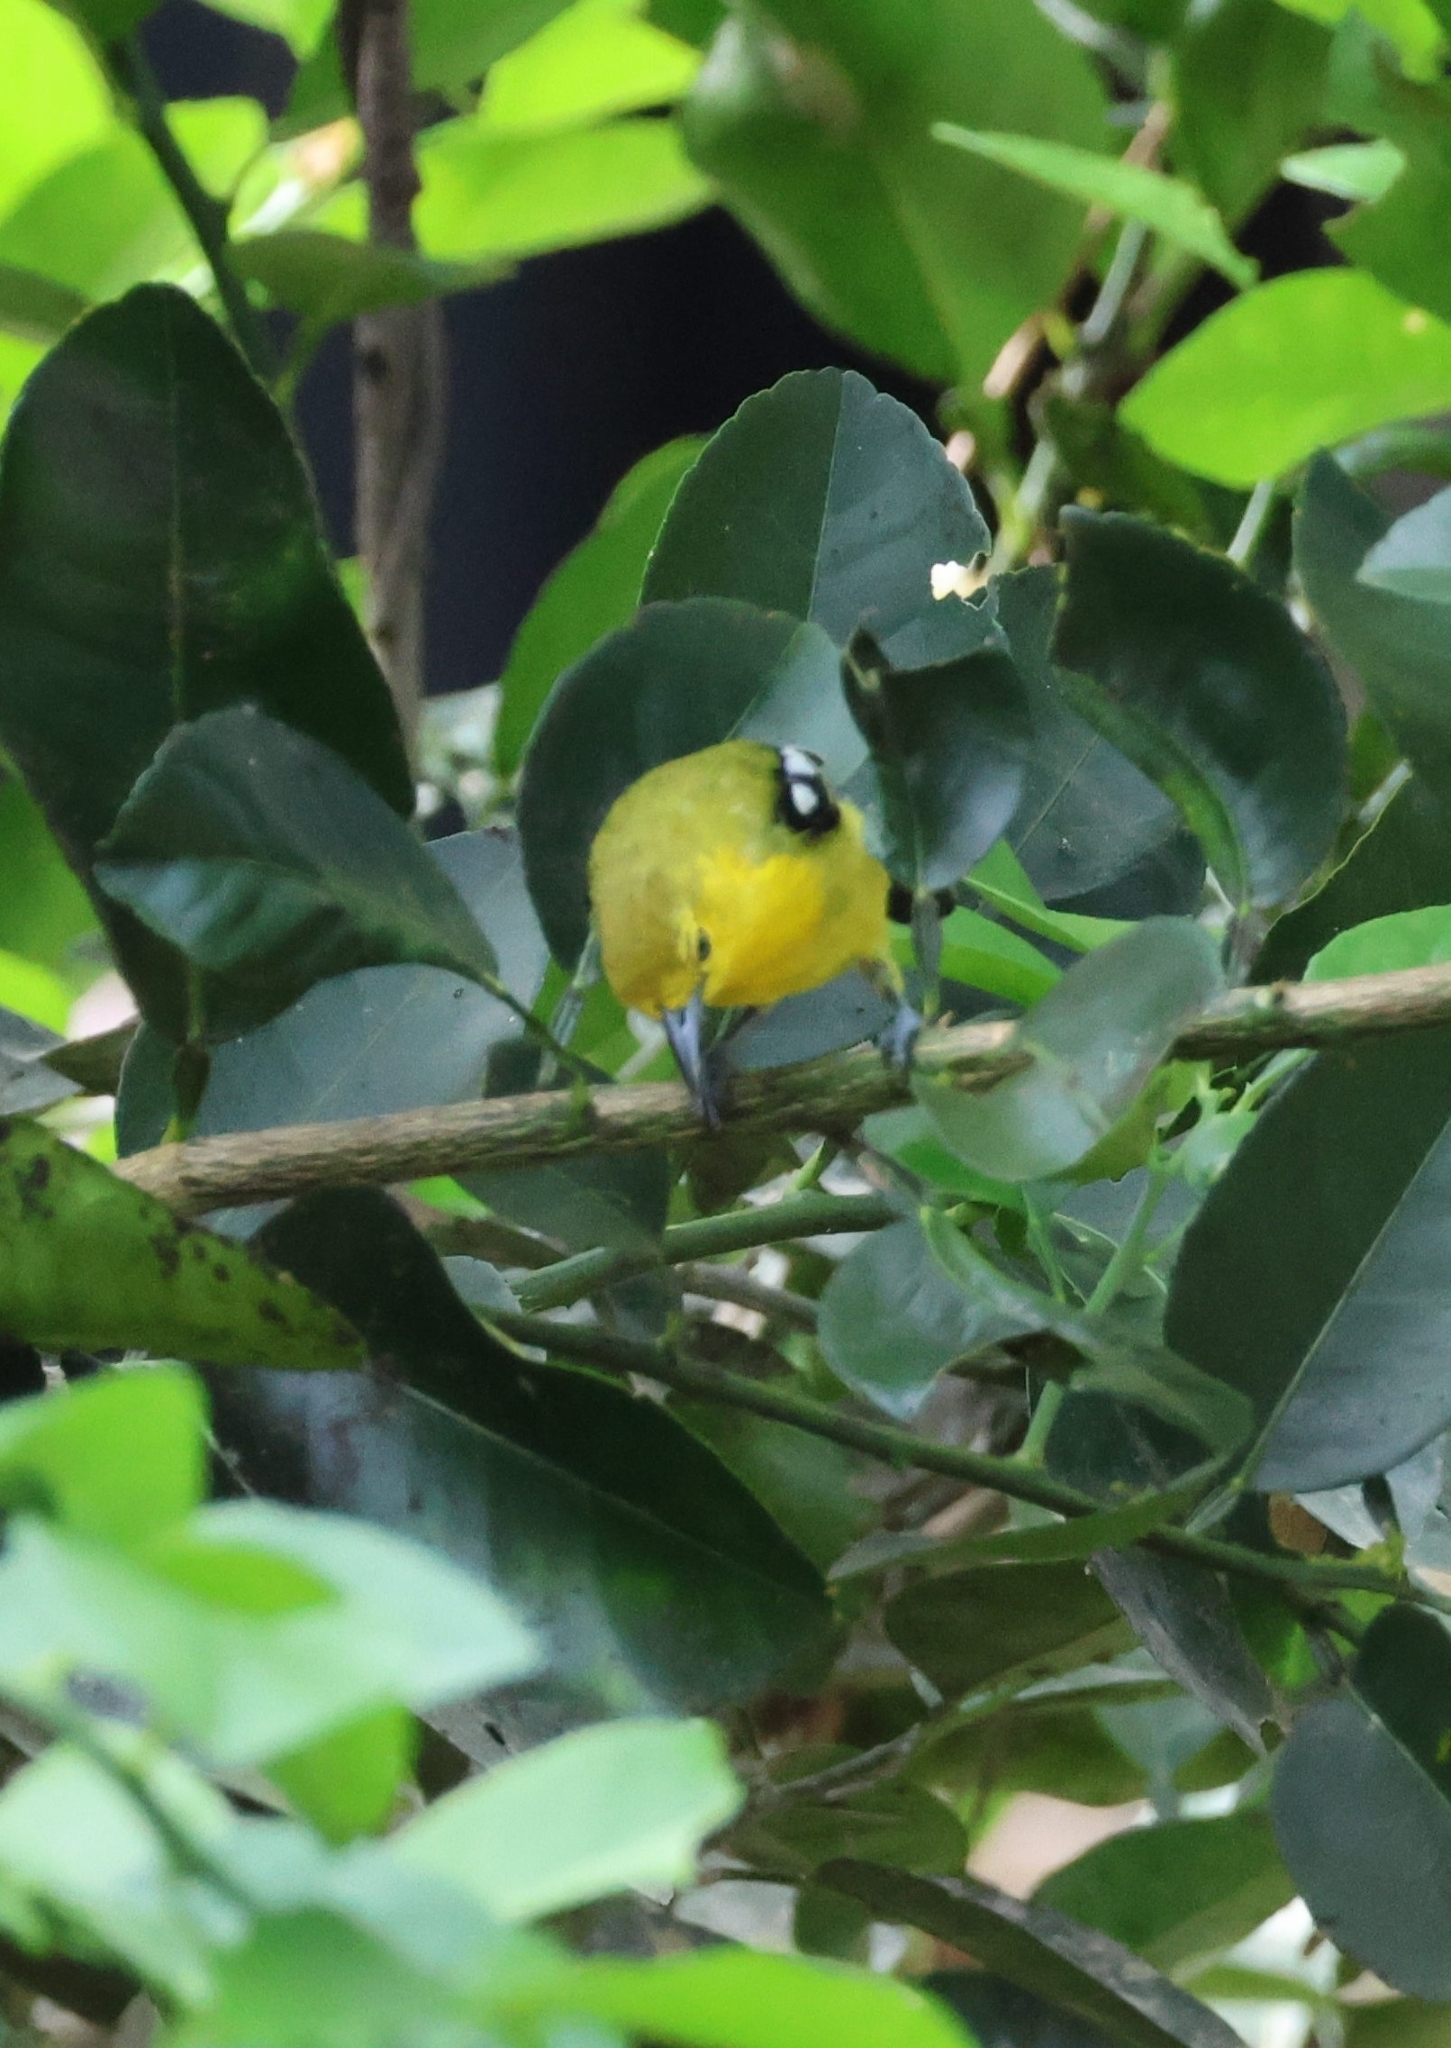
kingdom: Animalia
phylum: Chordata
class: Aves
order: Passeriformes
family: Aegithinidae
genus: Aegithina
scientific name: Aegithina tiphia
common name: Common iora
